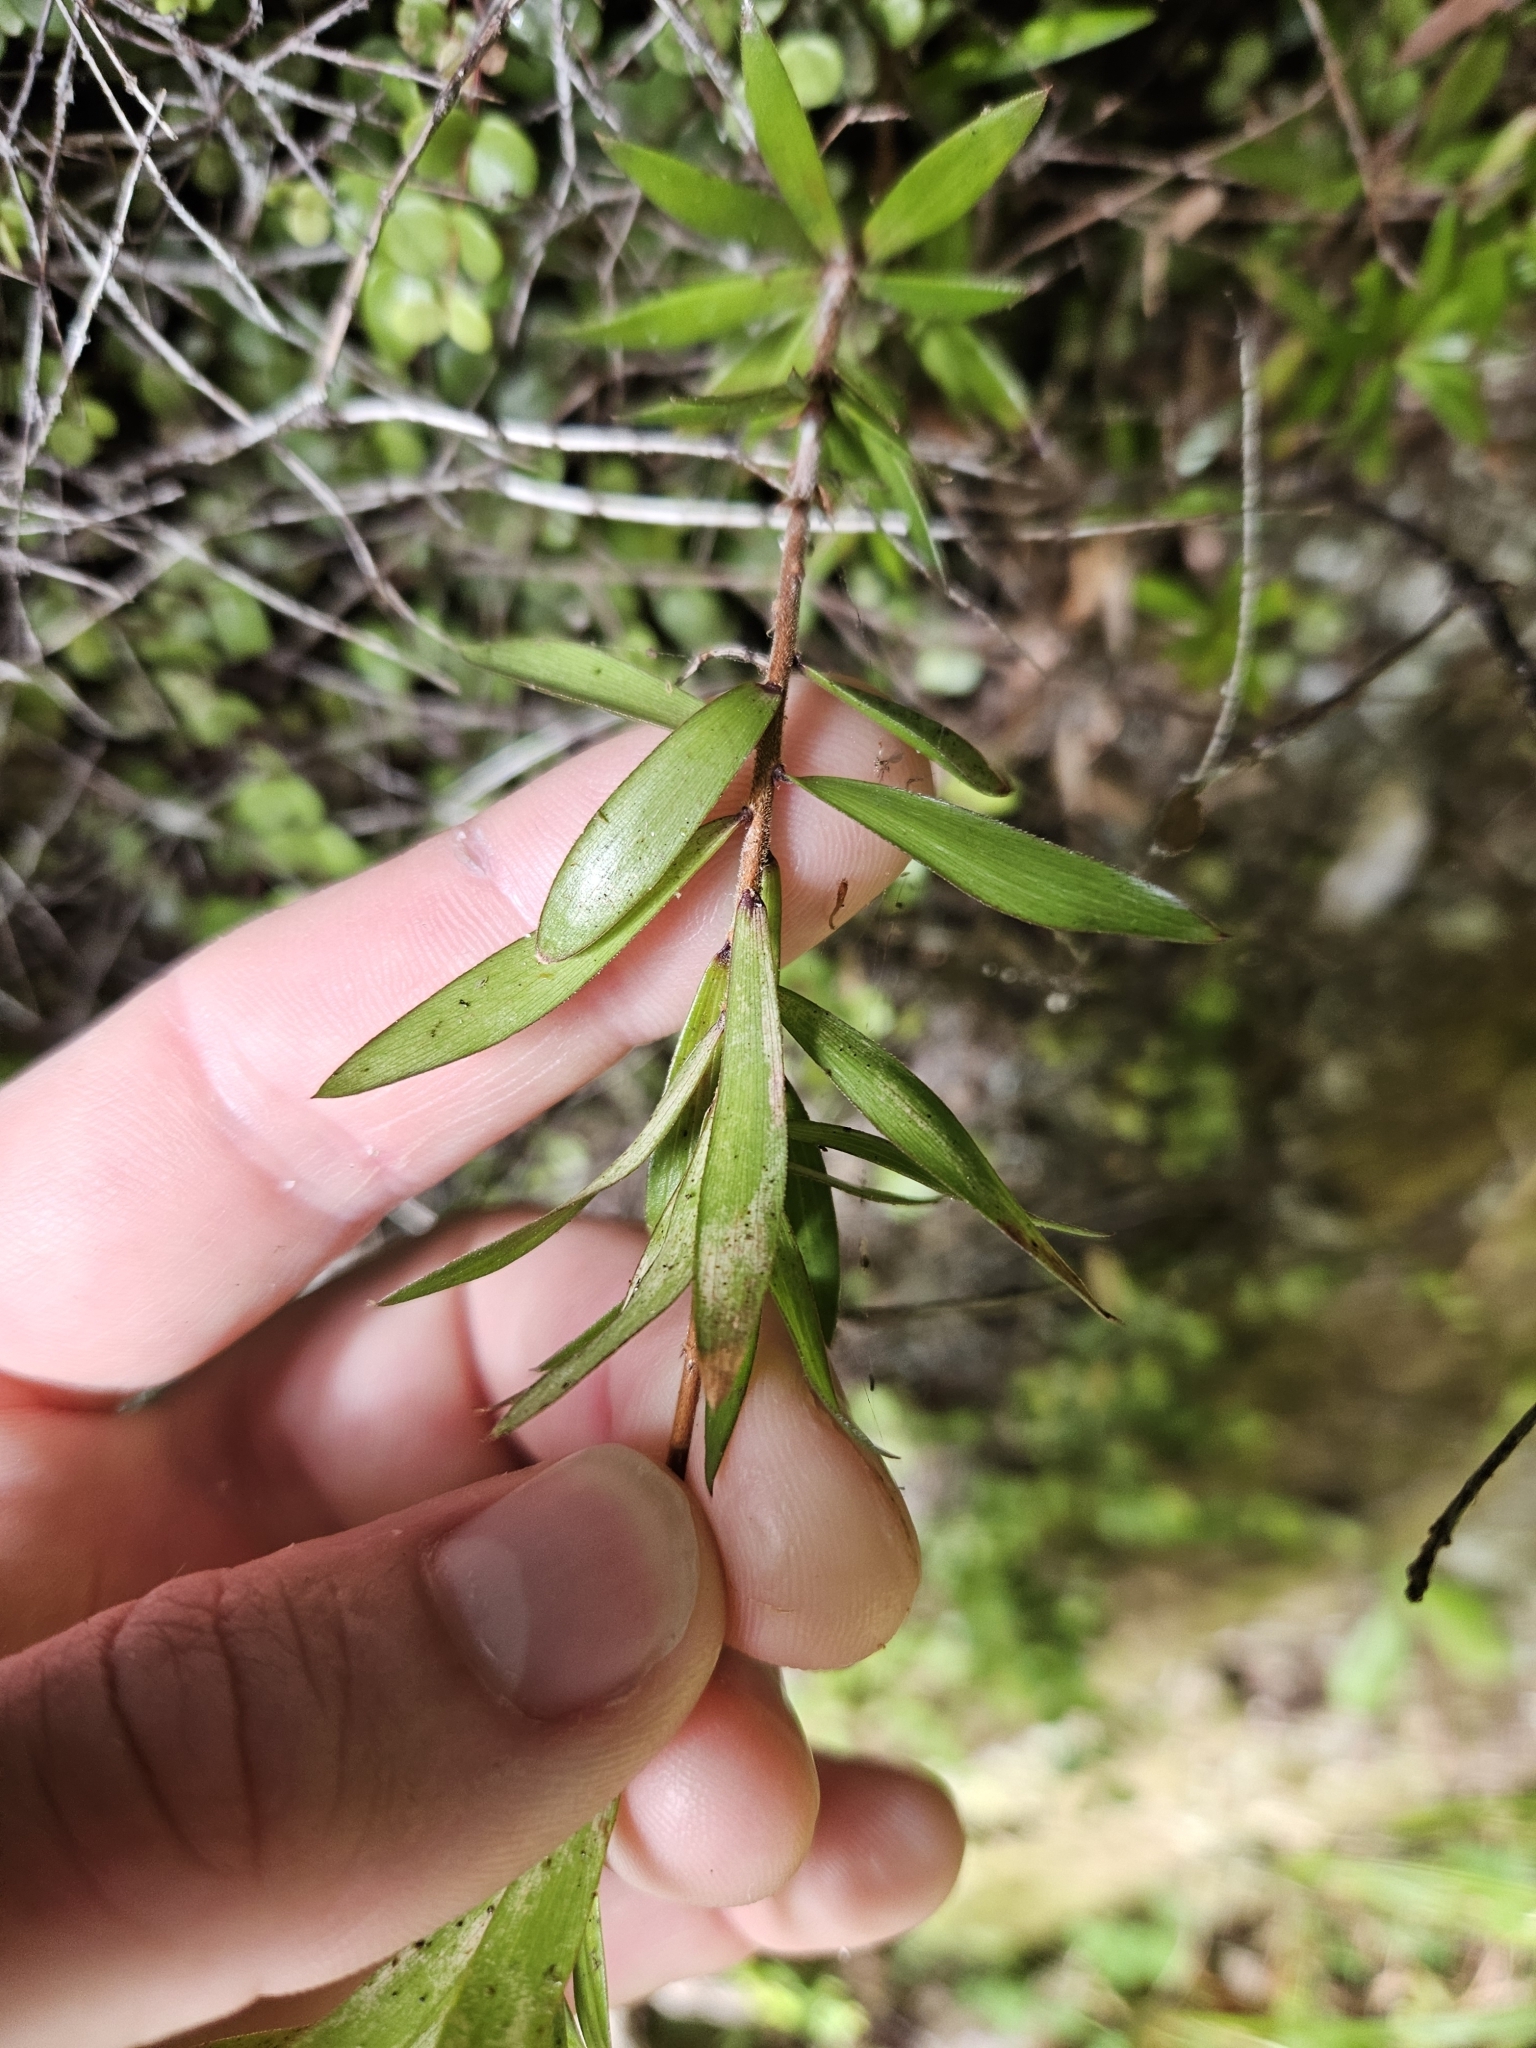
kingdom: Plantae
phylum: Tracheophyta
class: Magnoliopsida
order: Ericales
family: Ericaceae
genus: Leucopogon
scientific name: Leucopogon fasciculatus
